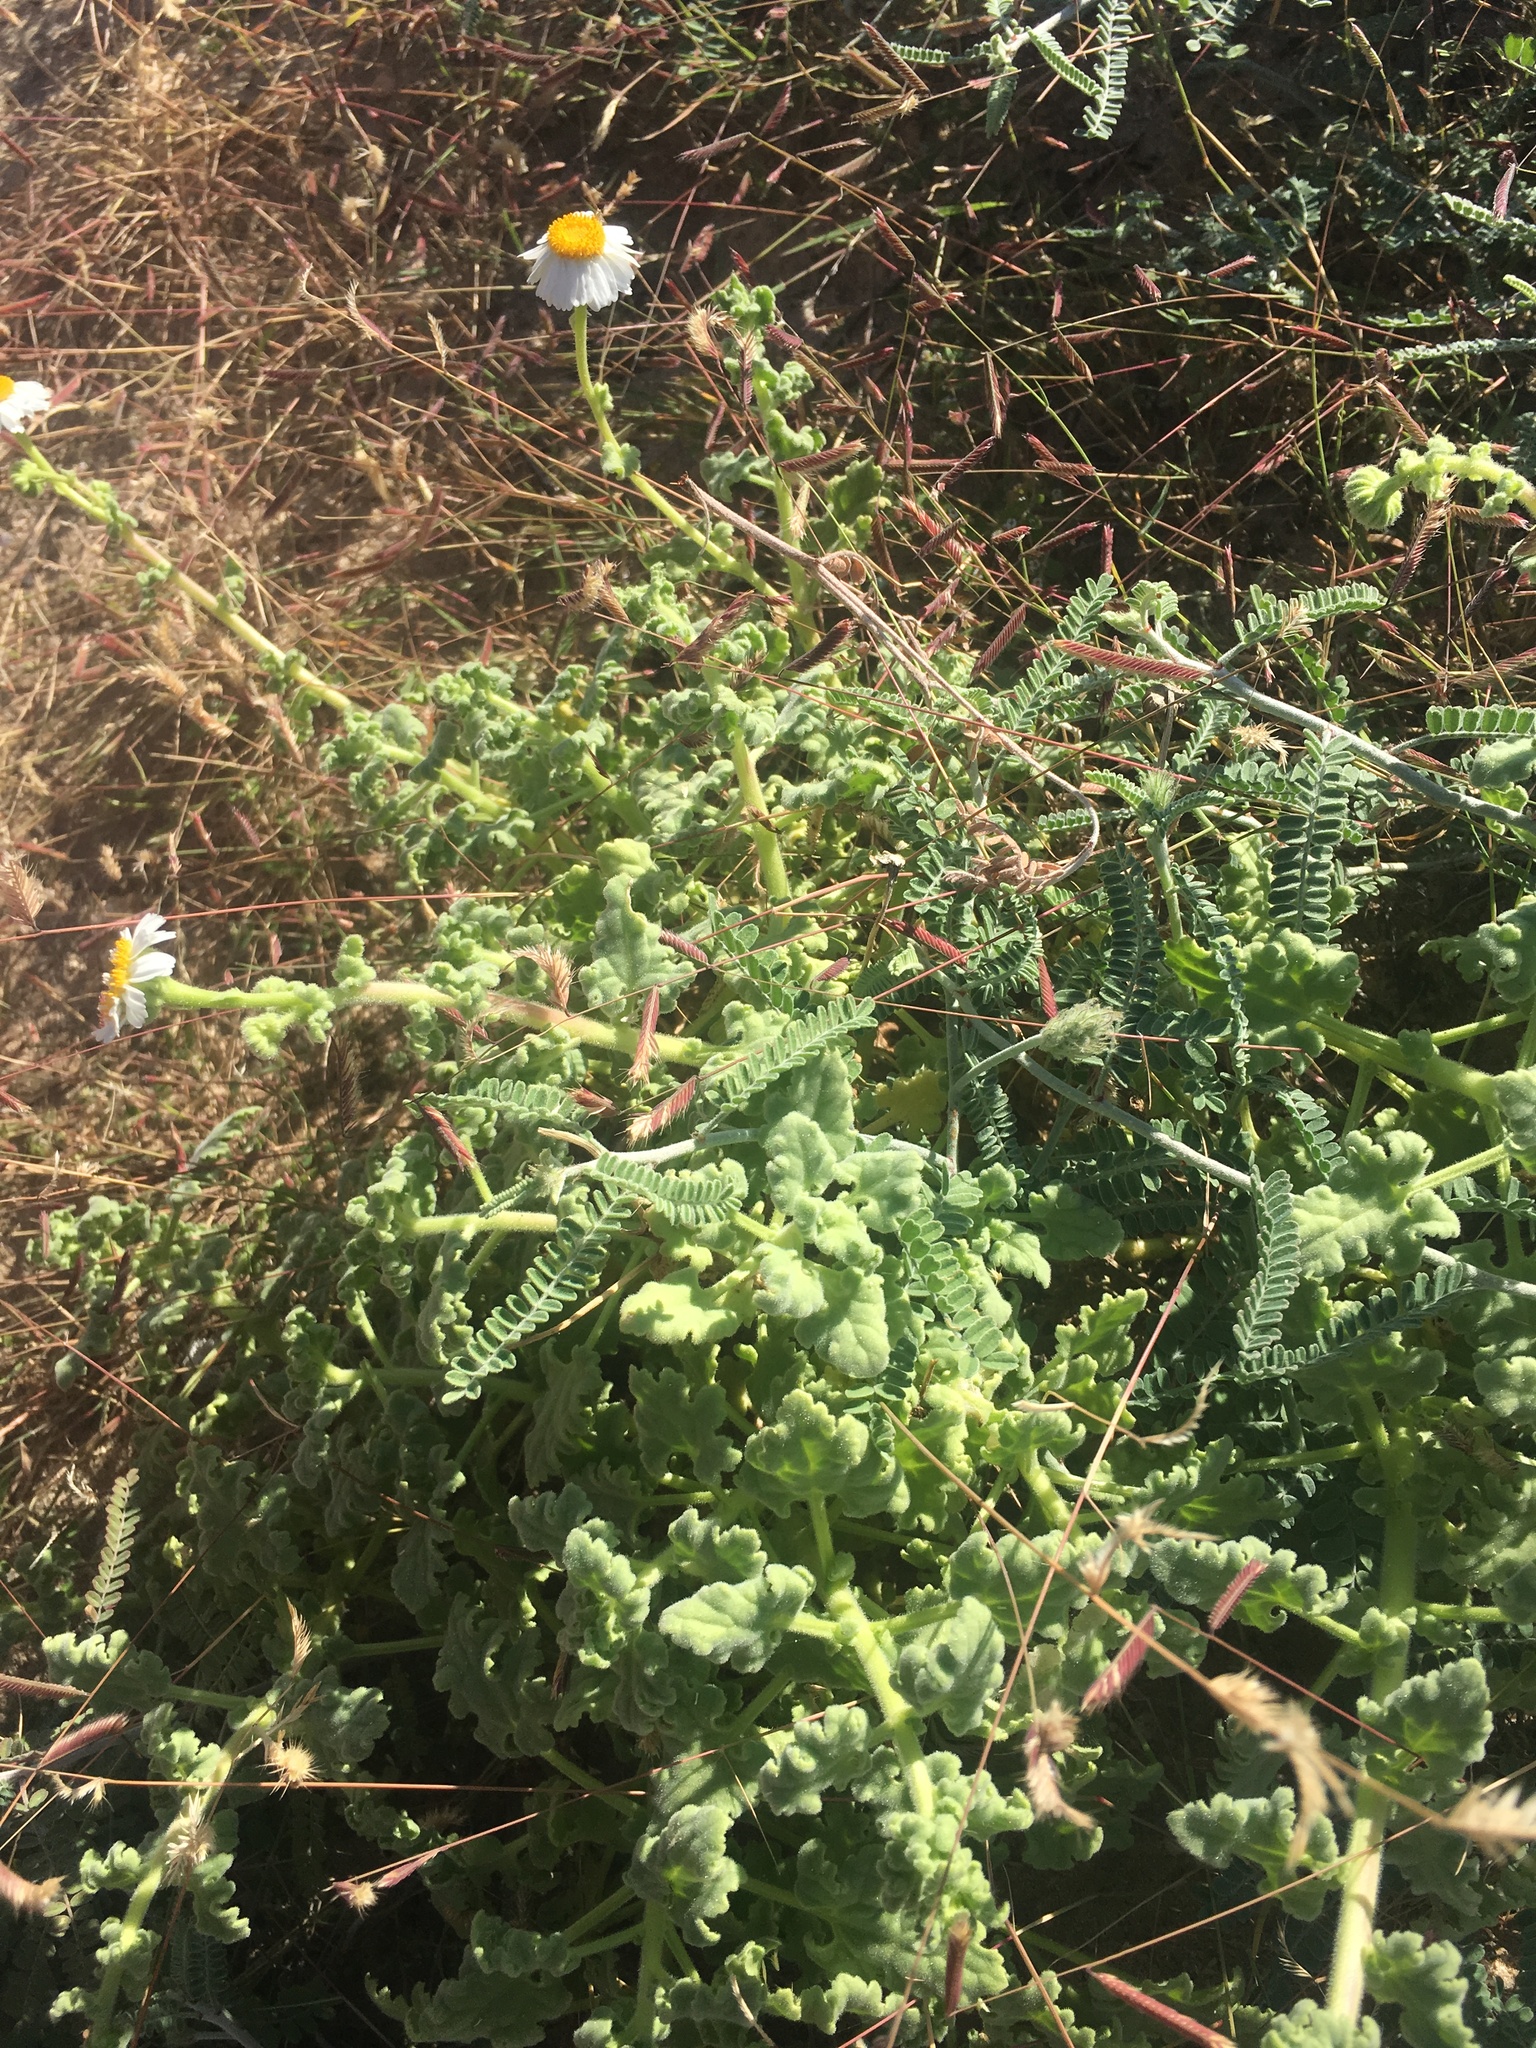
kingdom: Plantae
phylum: Tracheophyta
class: Magnoliopsida
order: Asterales
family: Asteraceae
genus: Perityle
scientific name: Perityle crassifolia
